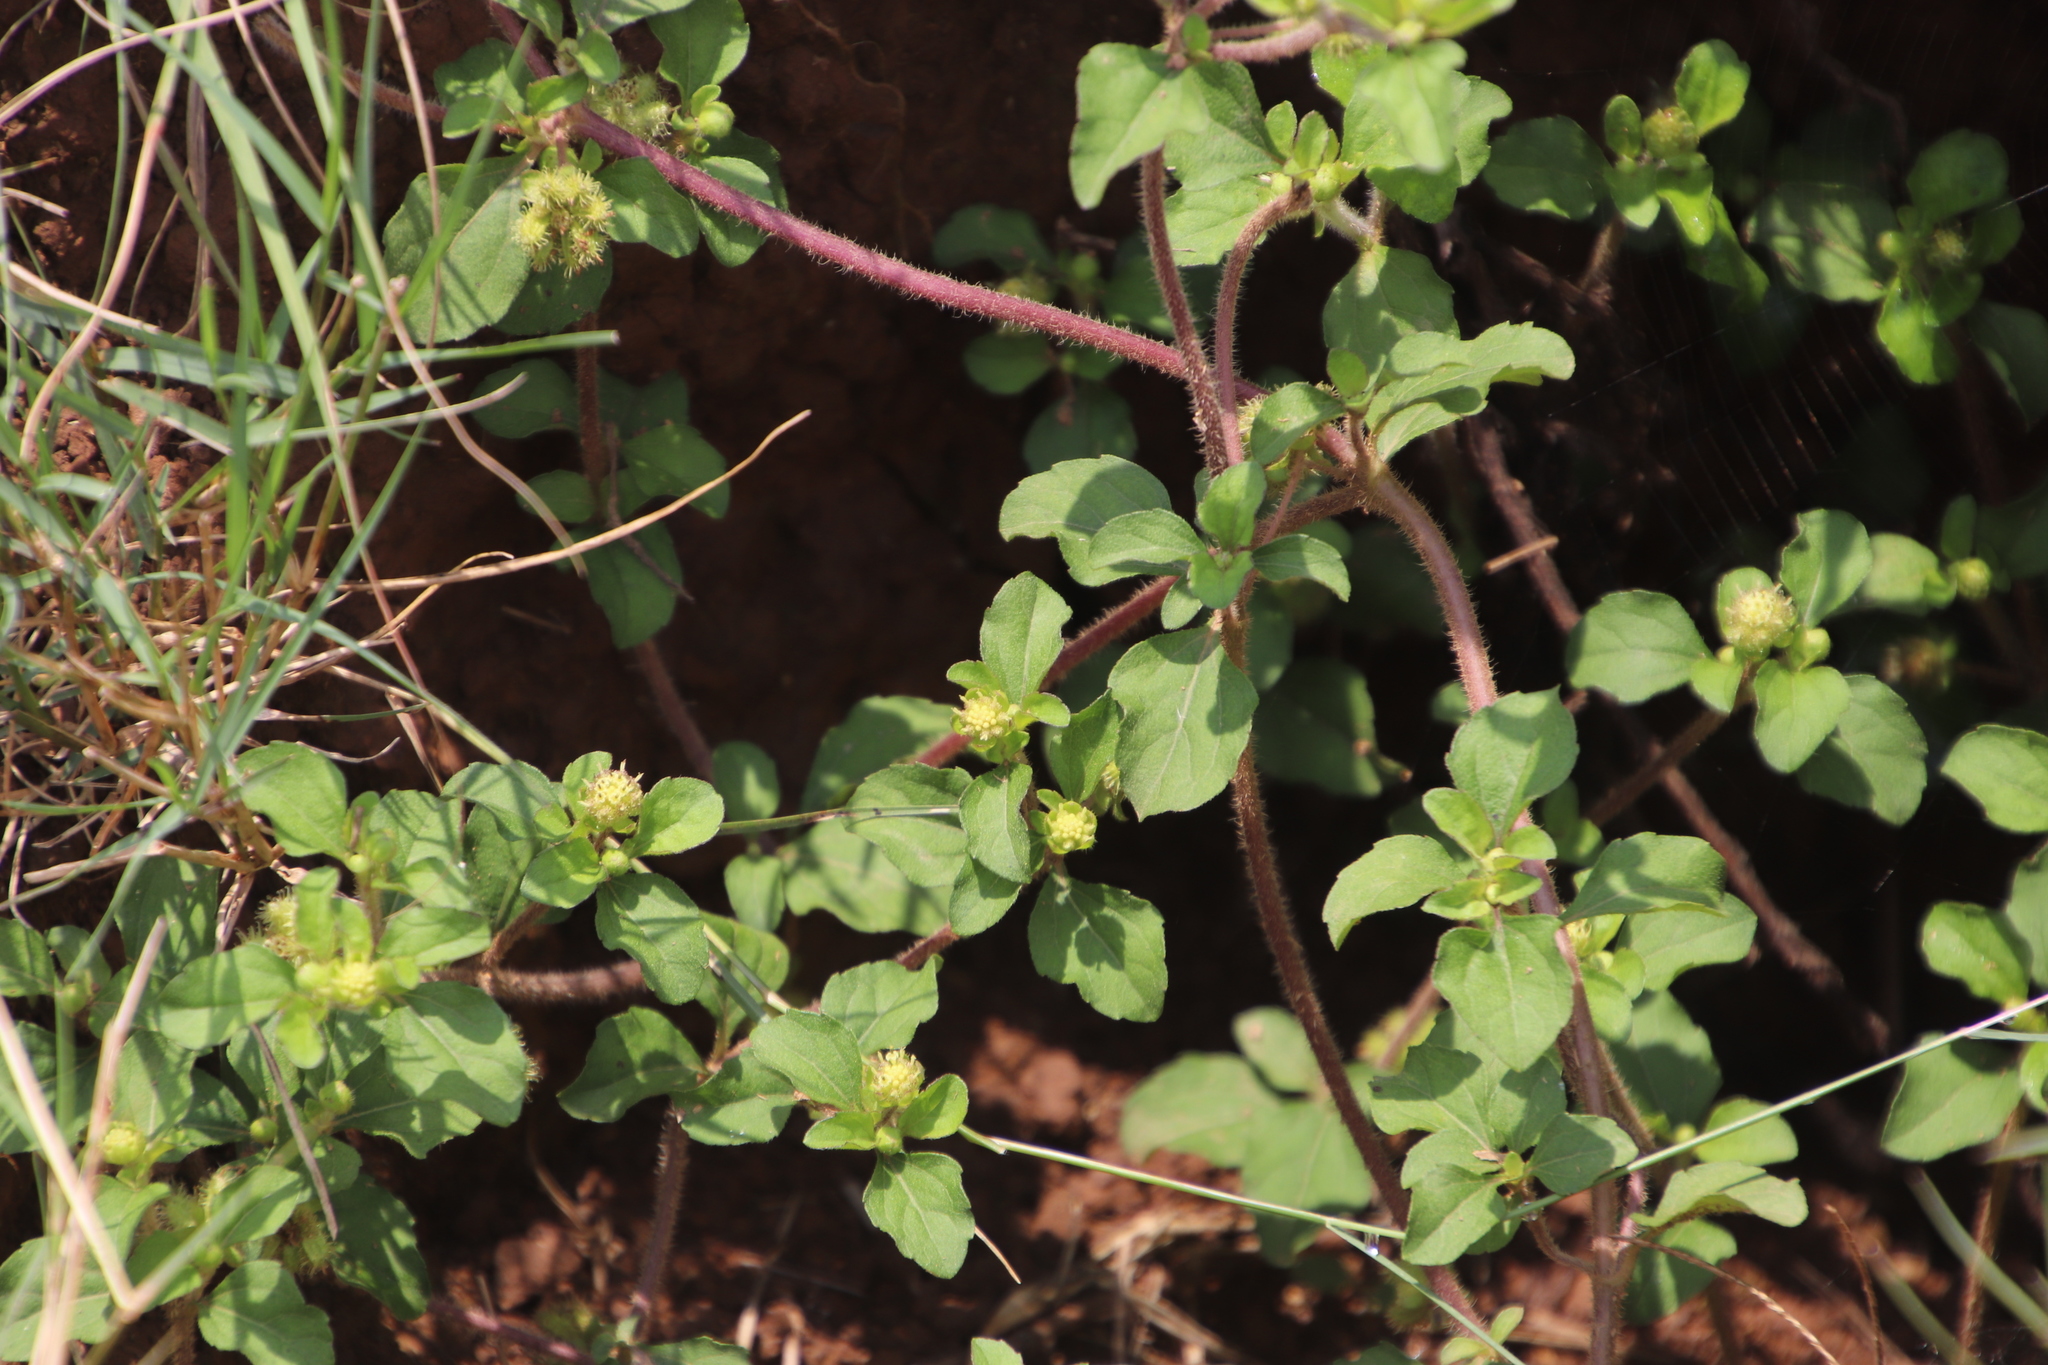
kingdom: Plantae
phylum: Tracheophyta
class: Magnoliopsida
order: Asterales
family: Asteraceae
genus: Acanthospermum
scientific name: Acanthospermum australe
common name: Paraguayan starbur
